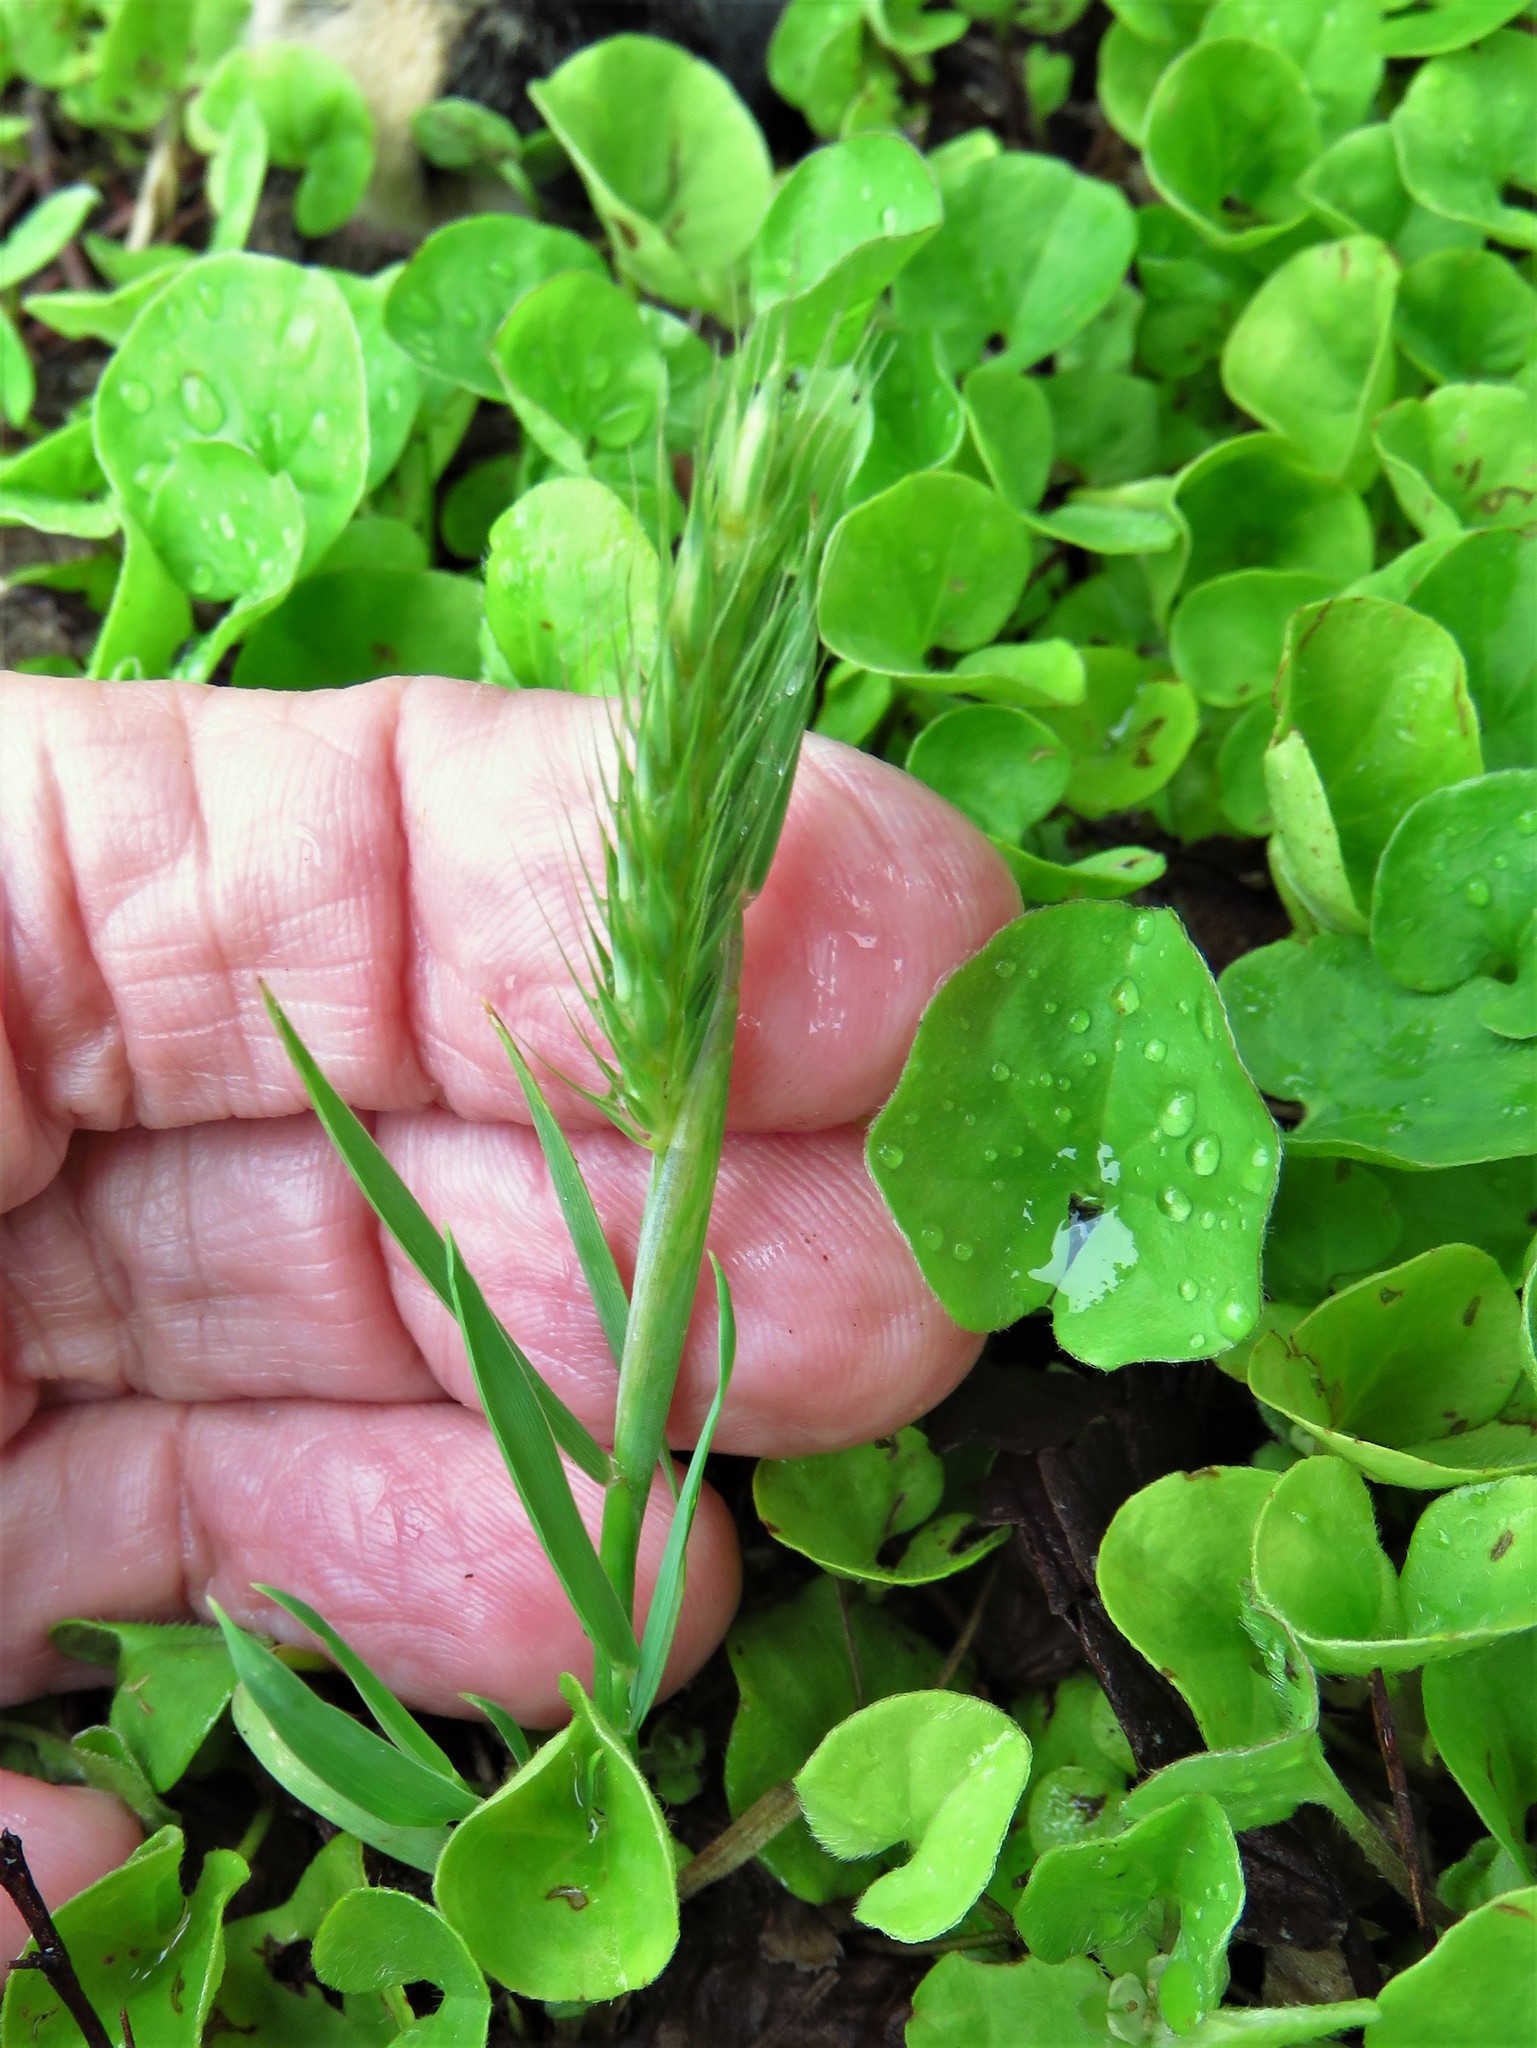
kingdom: Plantae
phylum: Tracheophyta
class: Liliopsida
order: Poales
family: Poaceae
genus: Hordeum
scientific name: Hordeum pusillum
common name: Little barley
